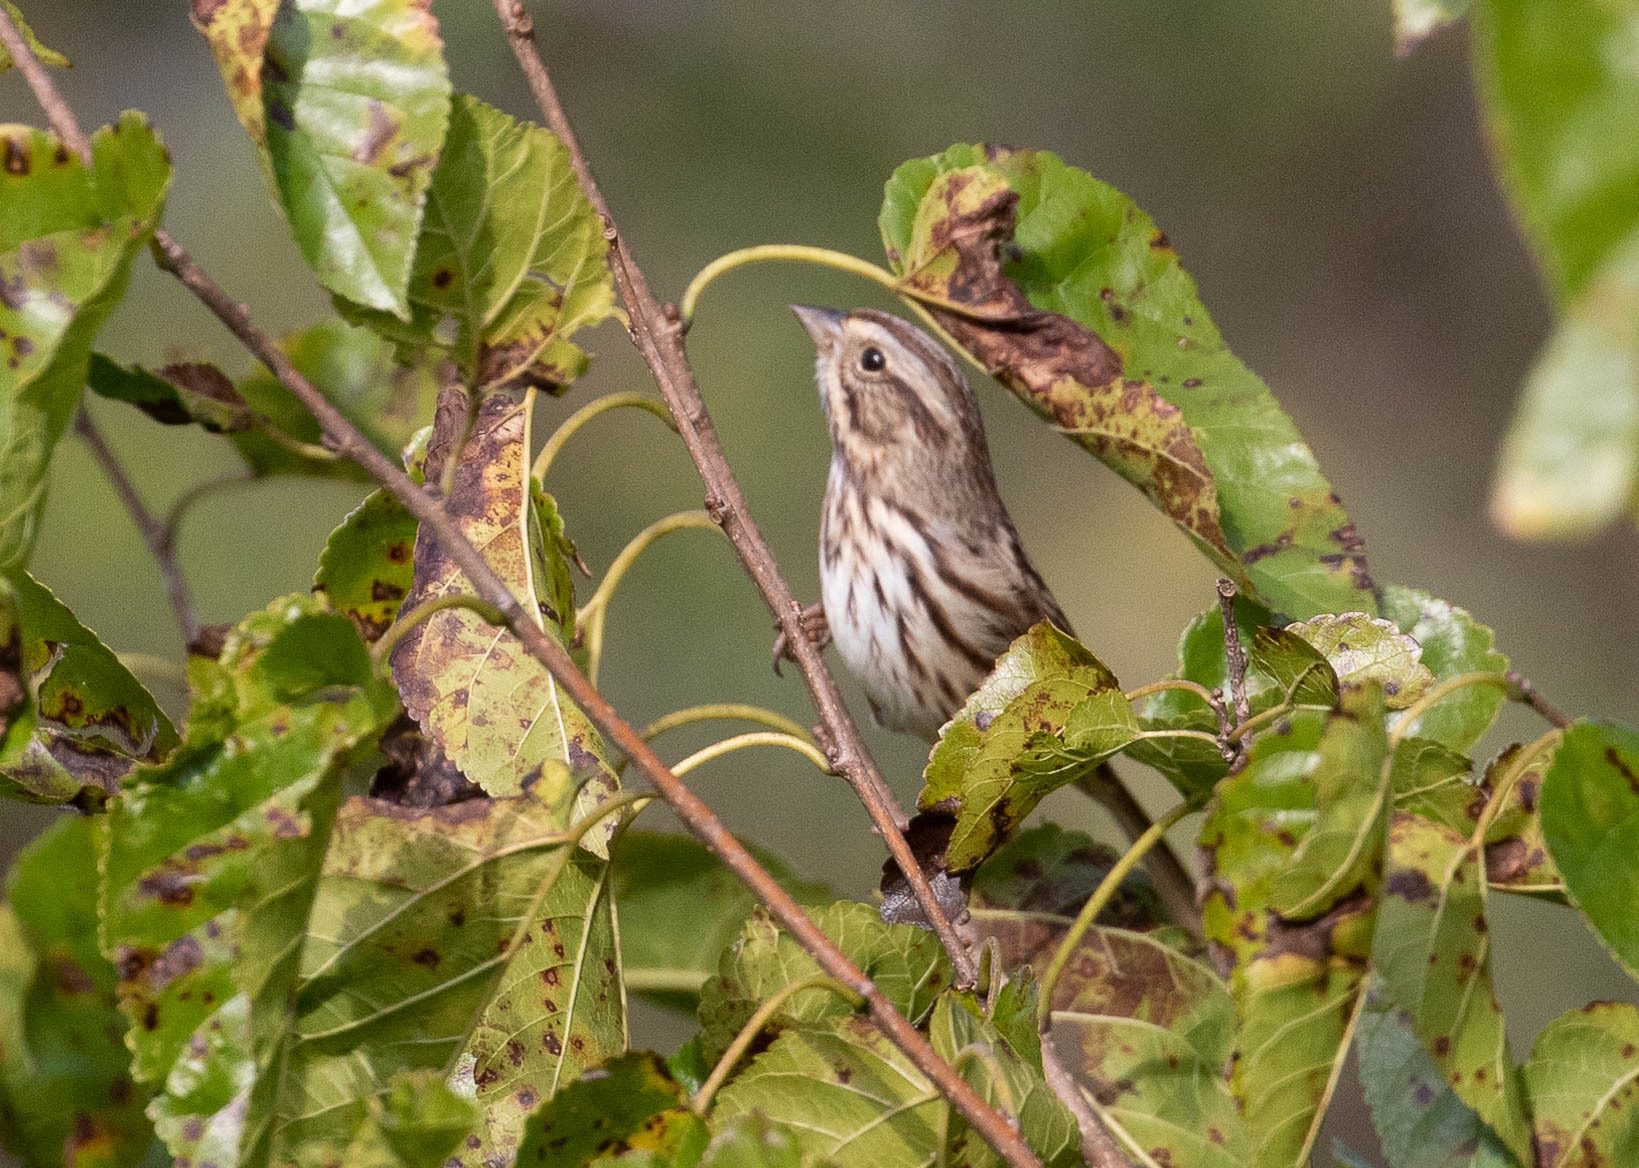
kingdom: Animalia
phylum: Chordata
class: Aves
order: Passeriformes
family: Passerellidae
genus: Melospiza
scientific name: Melospiza melodia
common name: Song sparrow
